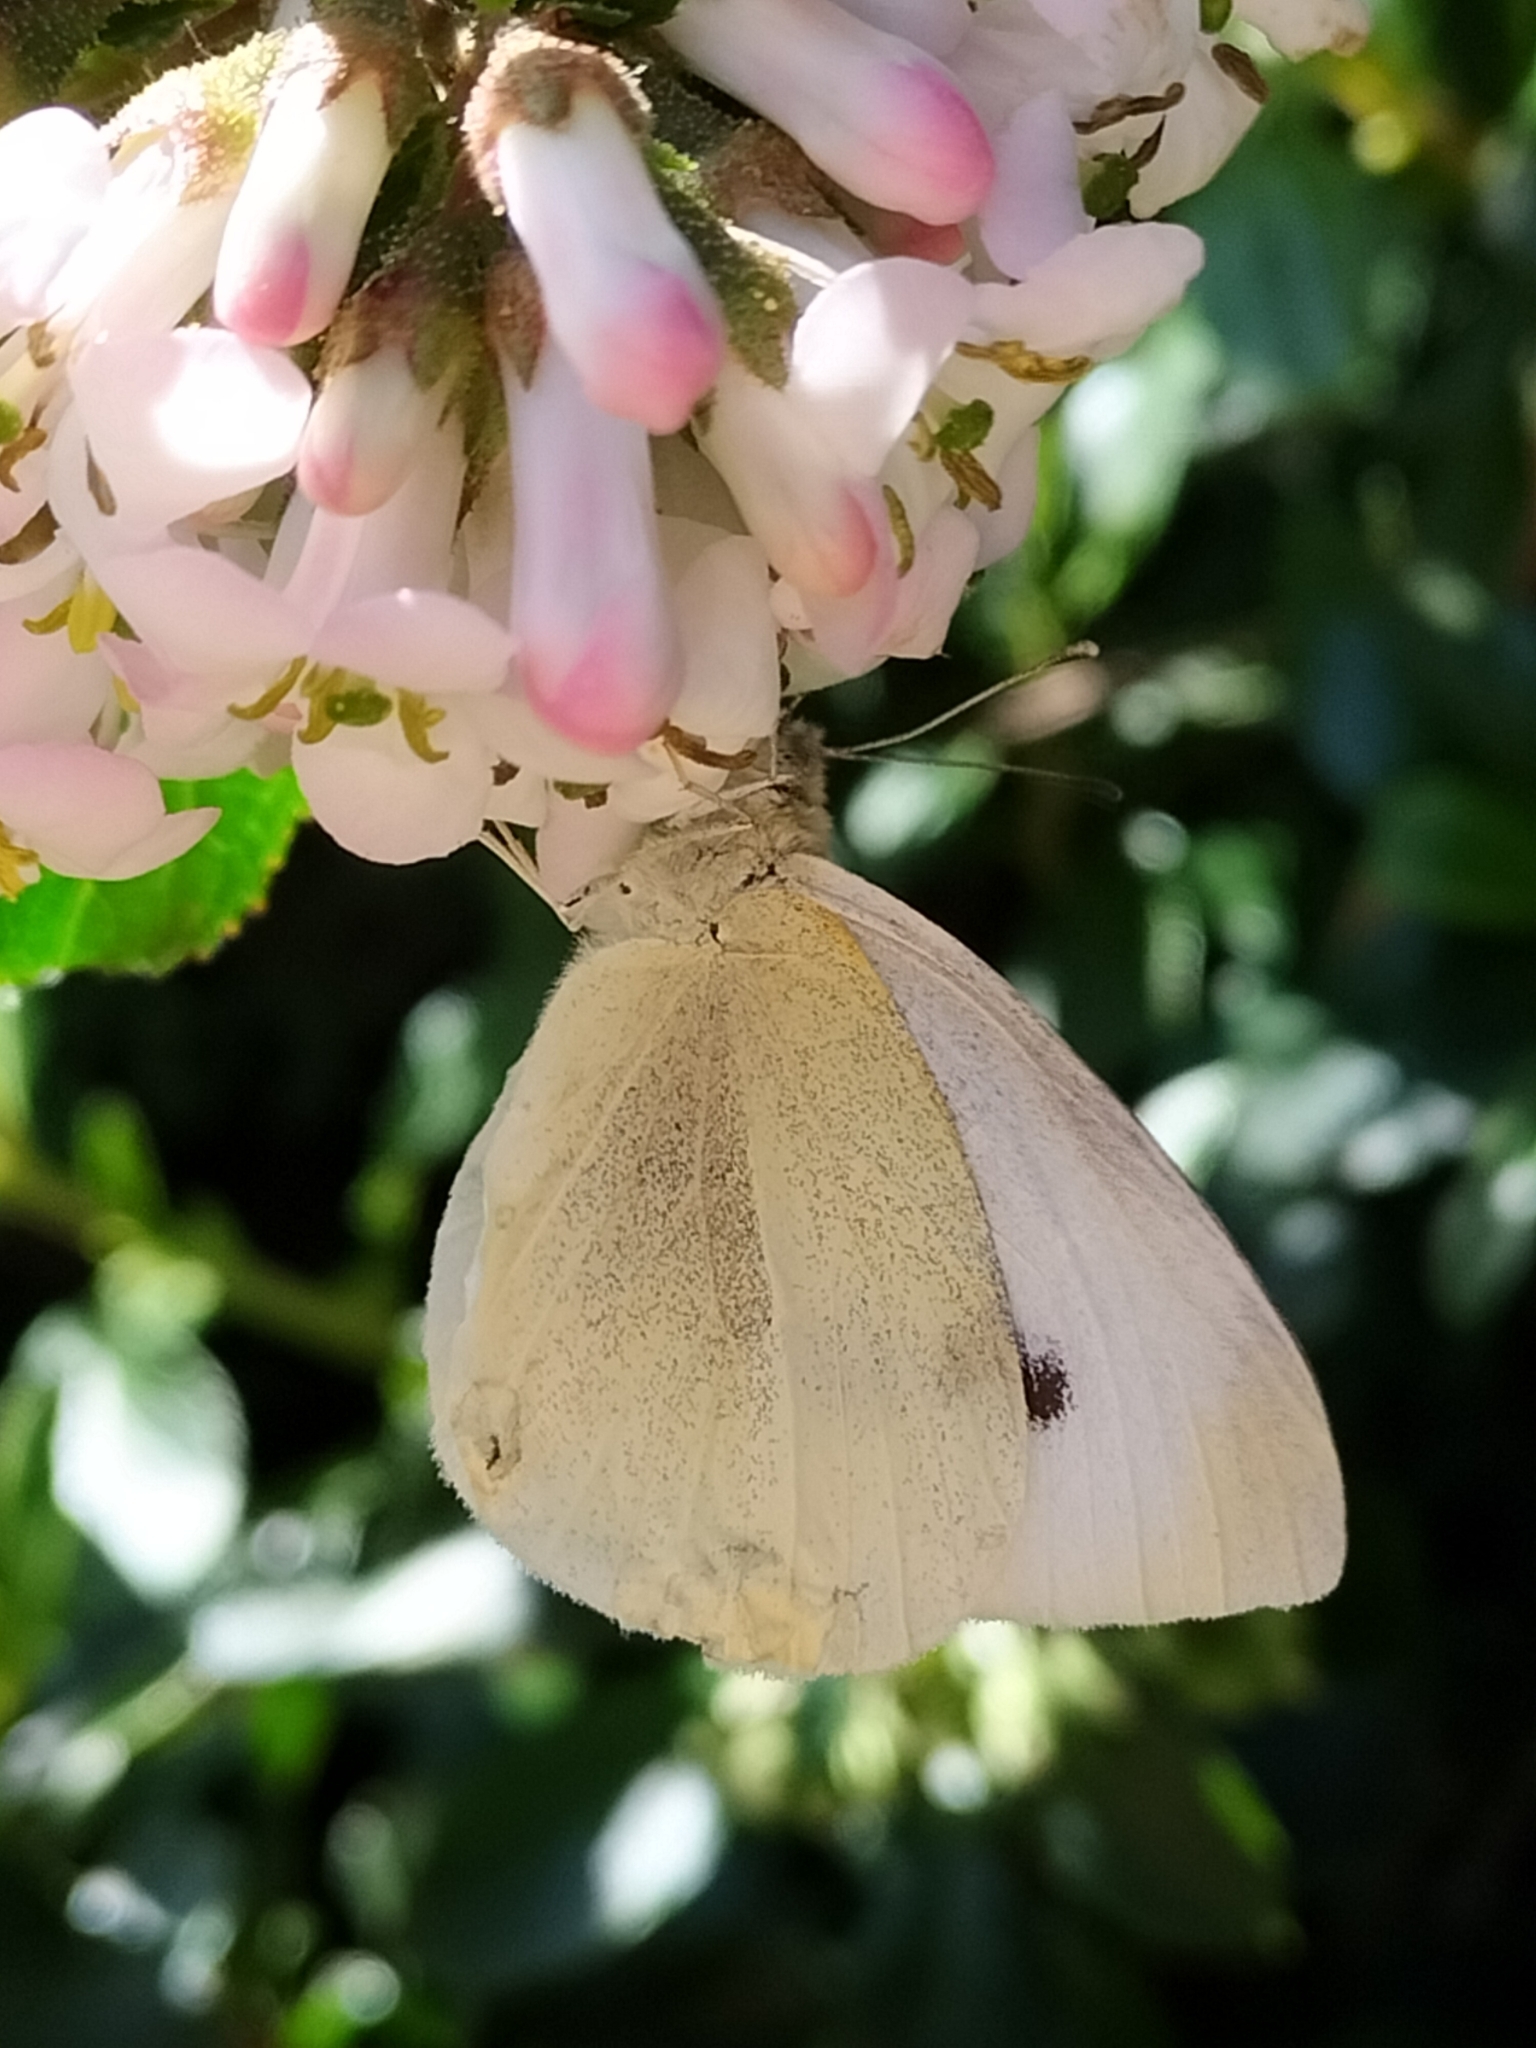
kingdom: Animalia
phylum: Arthropoda
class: Insecta
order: Lepidoptera
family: Pieridae
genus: Pieris
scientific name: Pieris rapae
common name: Small white
